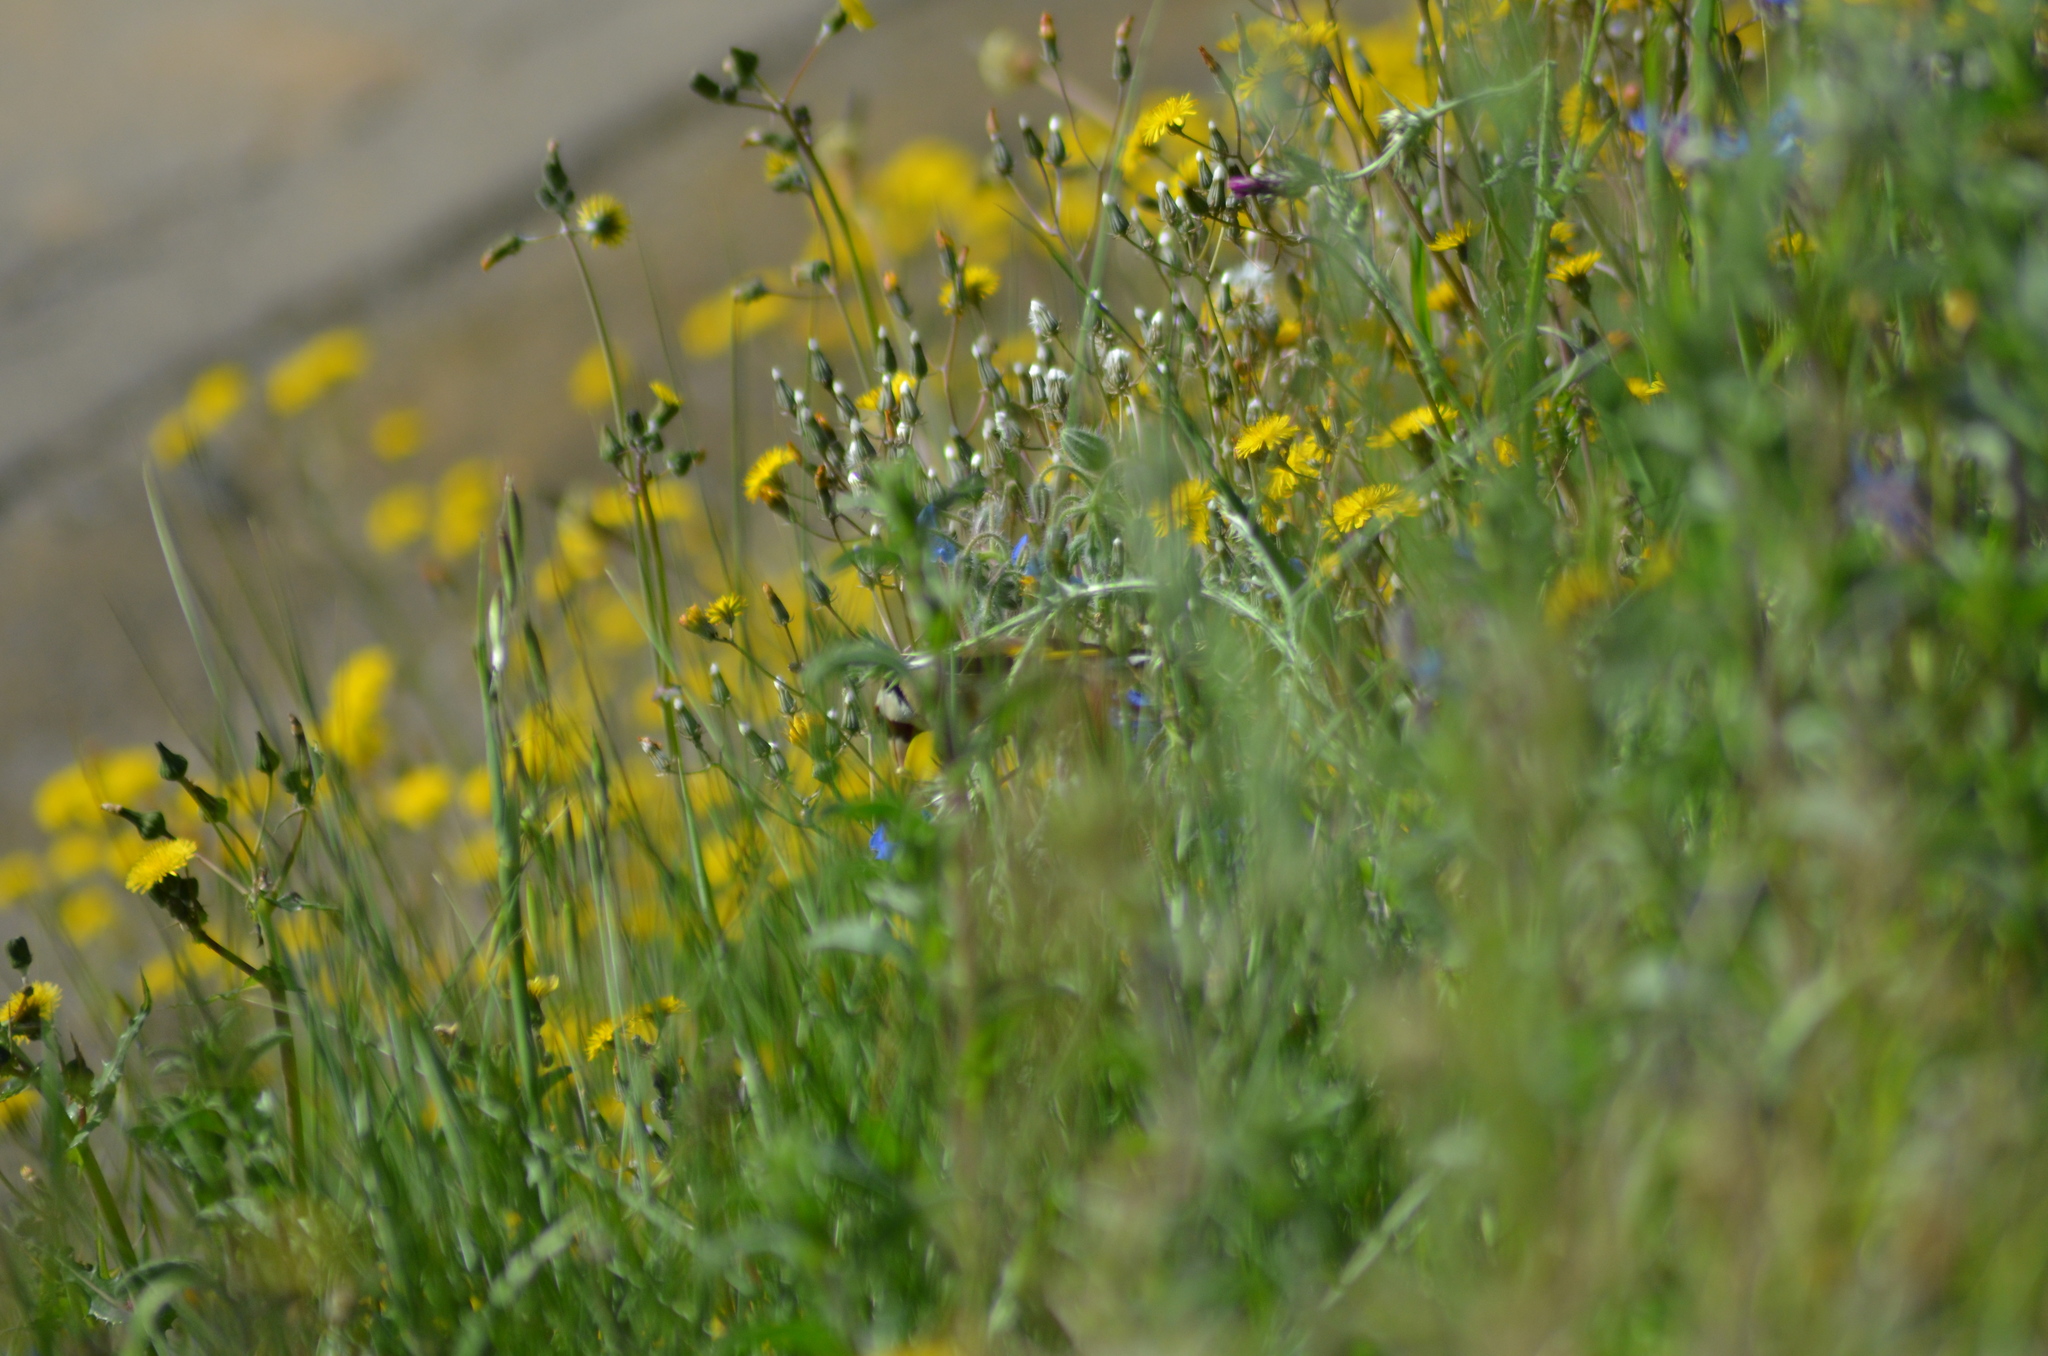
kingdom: Animalia
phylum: Chordata
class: Aves
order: Passeriformes
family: Fringillidae
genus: Carduelis
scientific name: Carduelis carduelis
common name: European goldfinch
